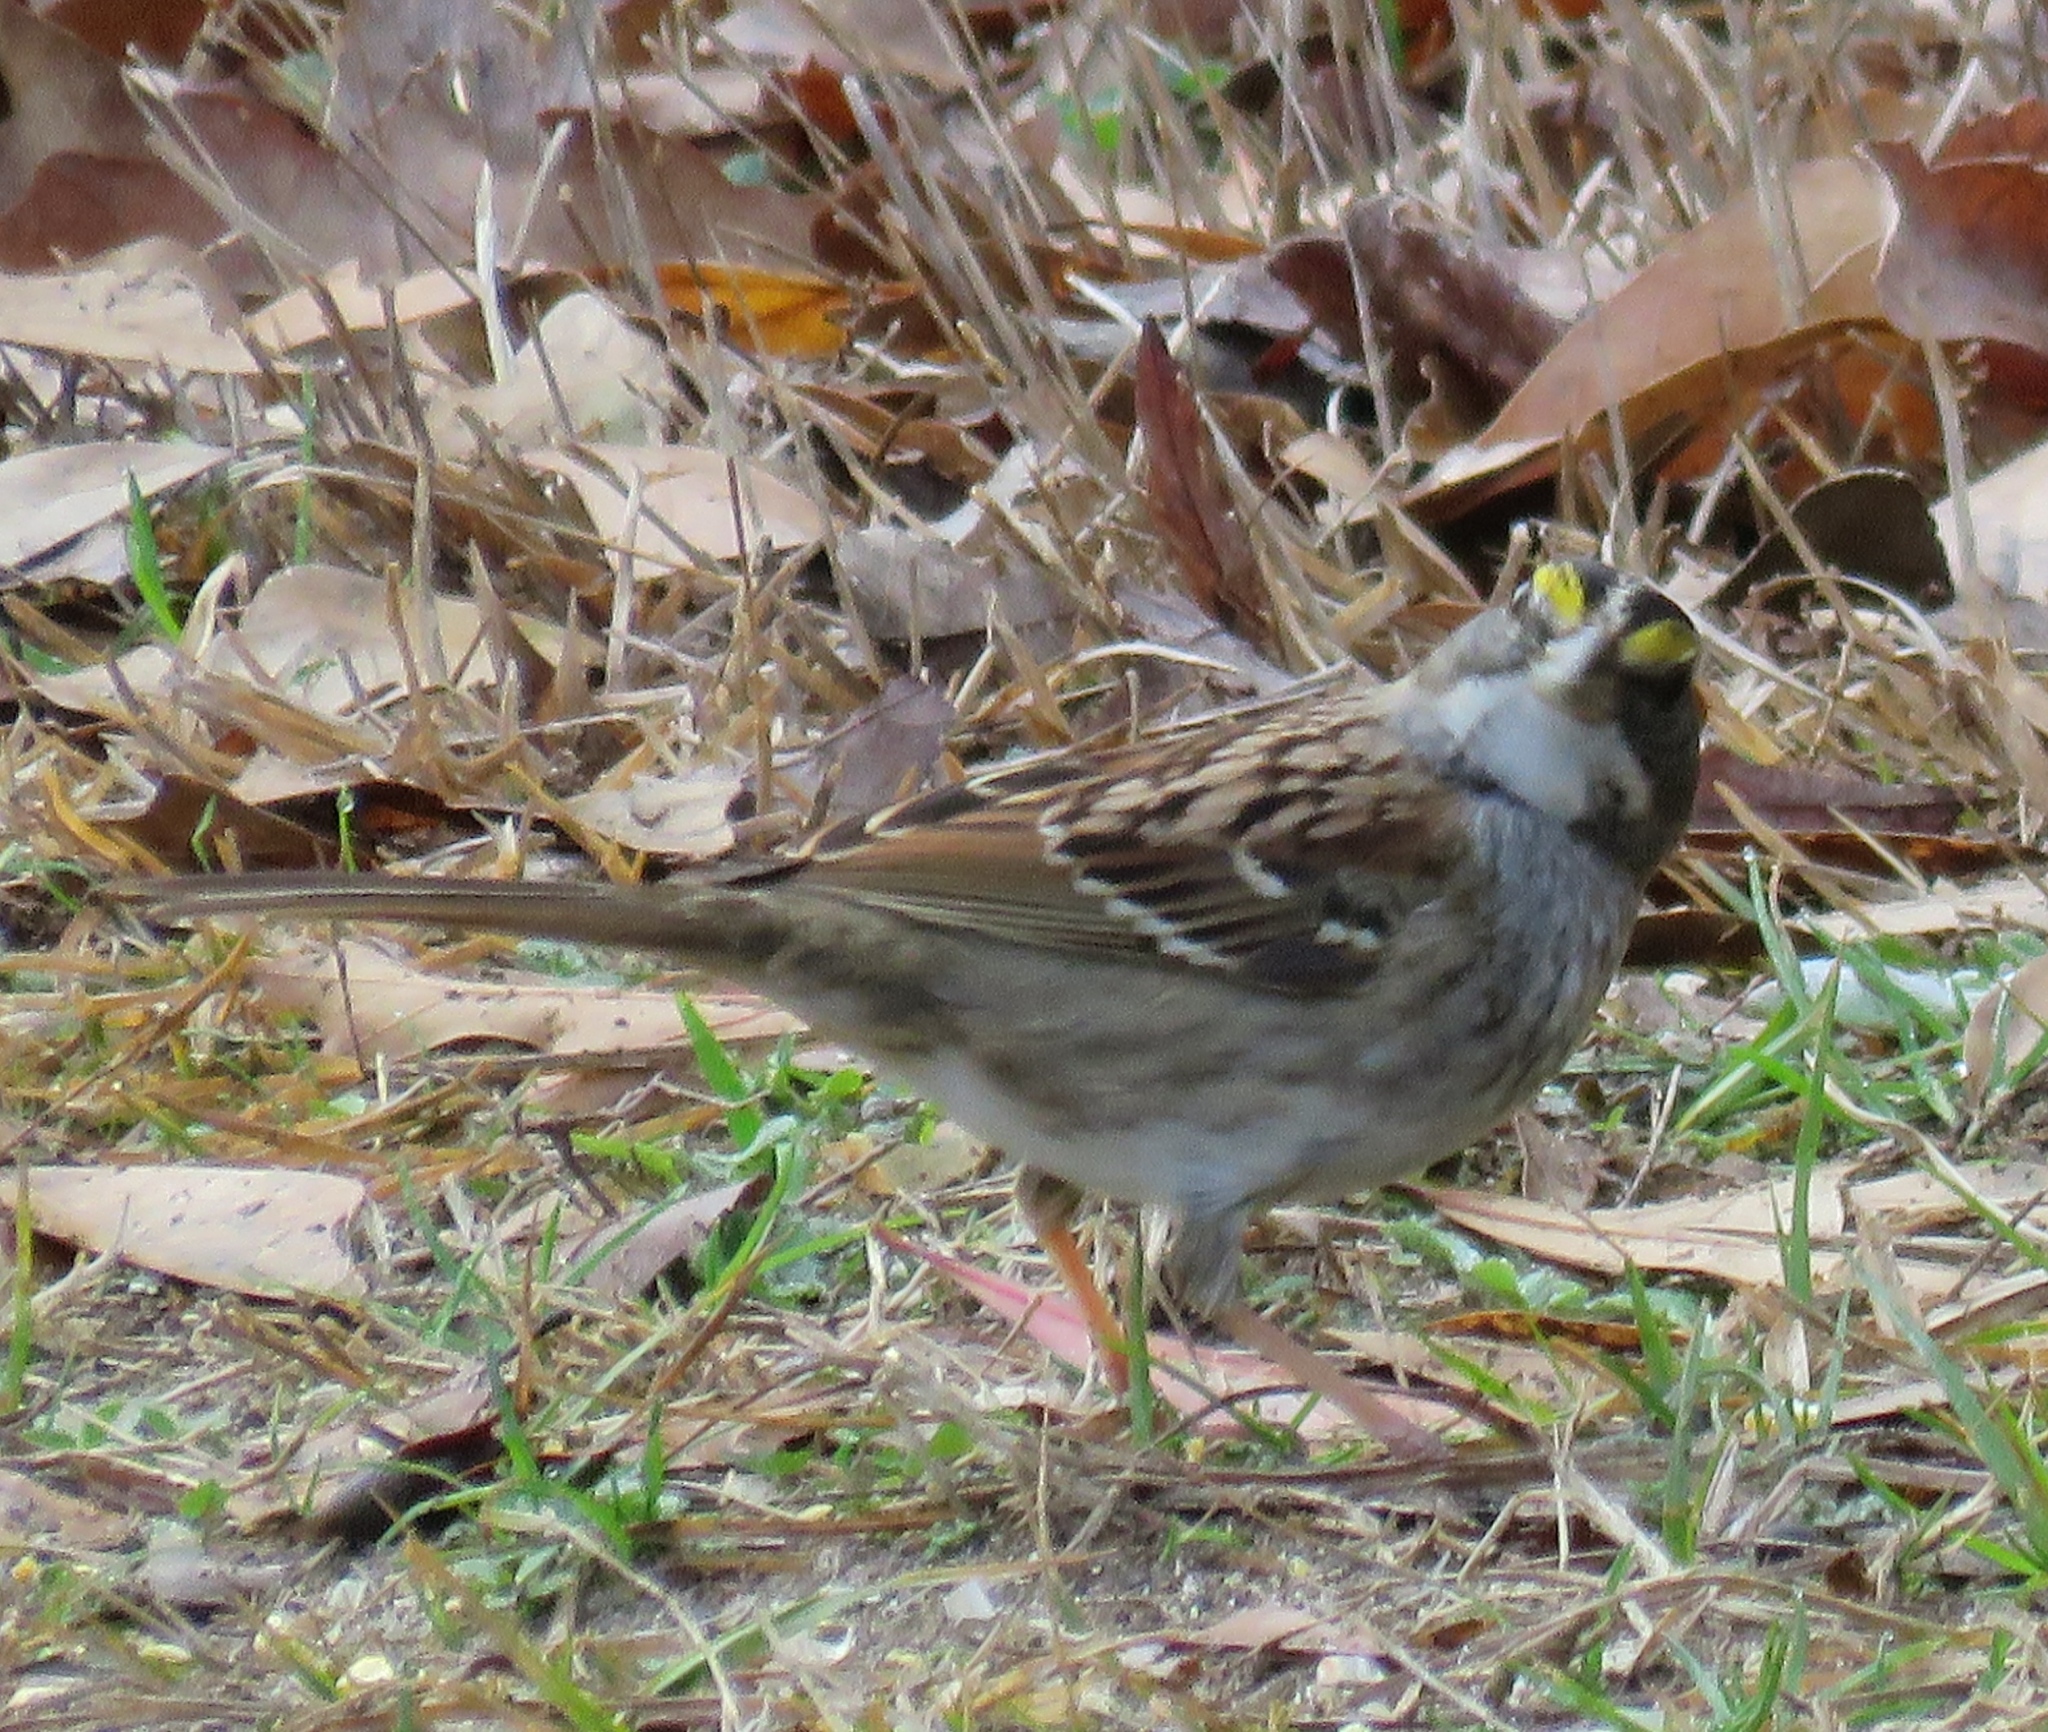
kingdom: Animalia
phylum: Chordata
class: Aves
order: Passeriformes
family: Passerellidae
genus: Zonotrichia
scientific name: Zonotrichia albicollis
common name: White-throated sparrow
